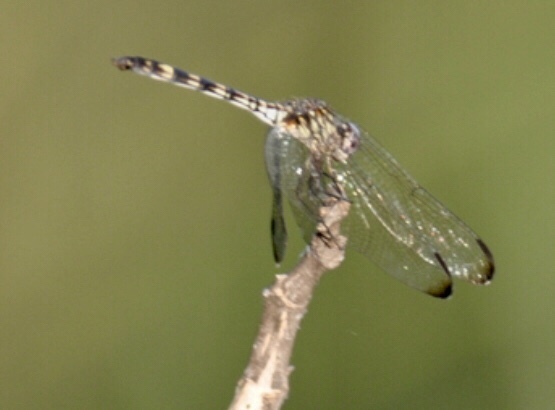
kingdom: Animalia
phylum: Arthropoda
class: Insecta
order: Odonata
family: Libellulidae
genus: Dythemis
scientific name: Dythemis nigrescens
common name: Black setwing
